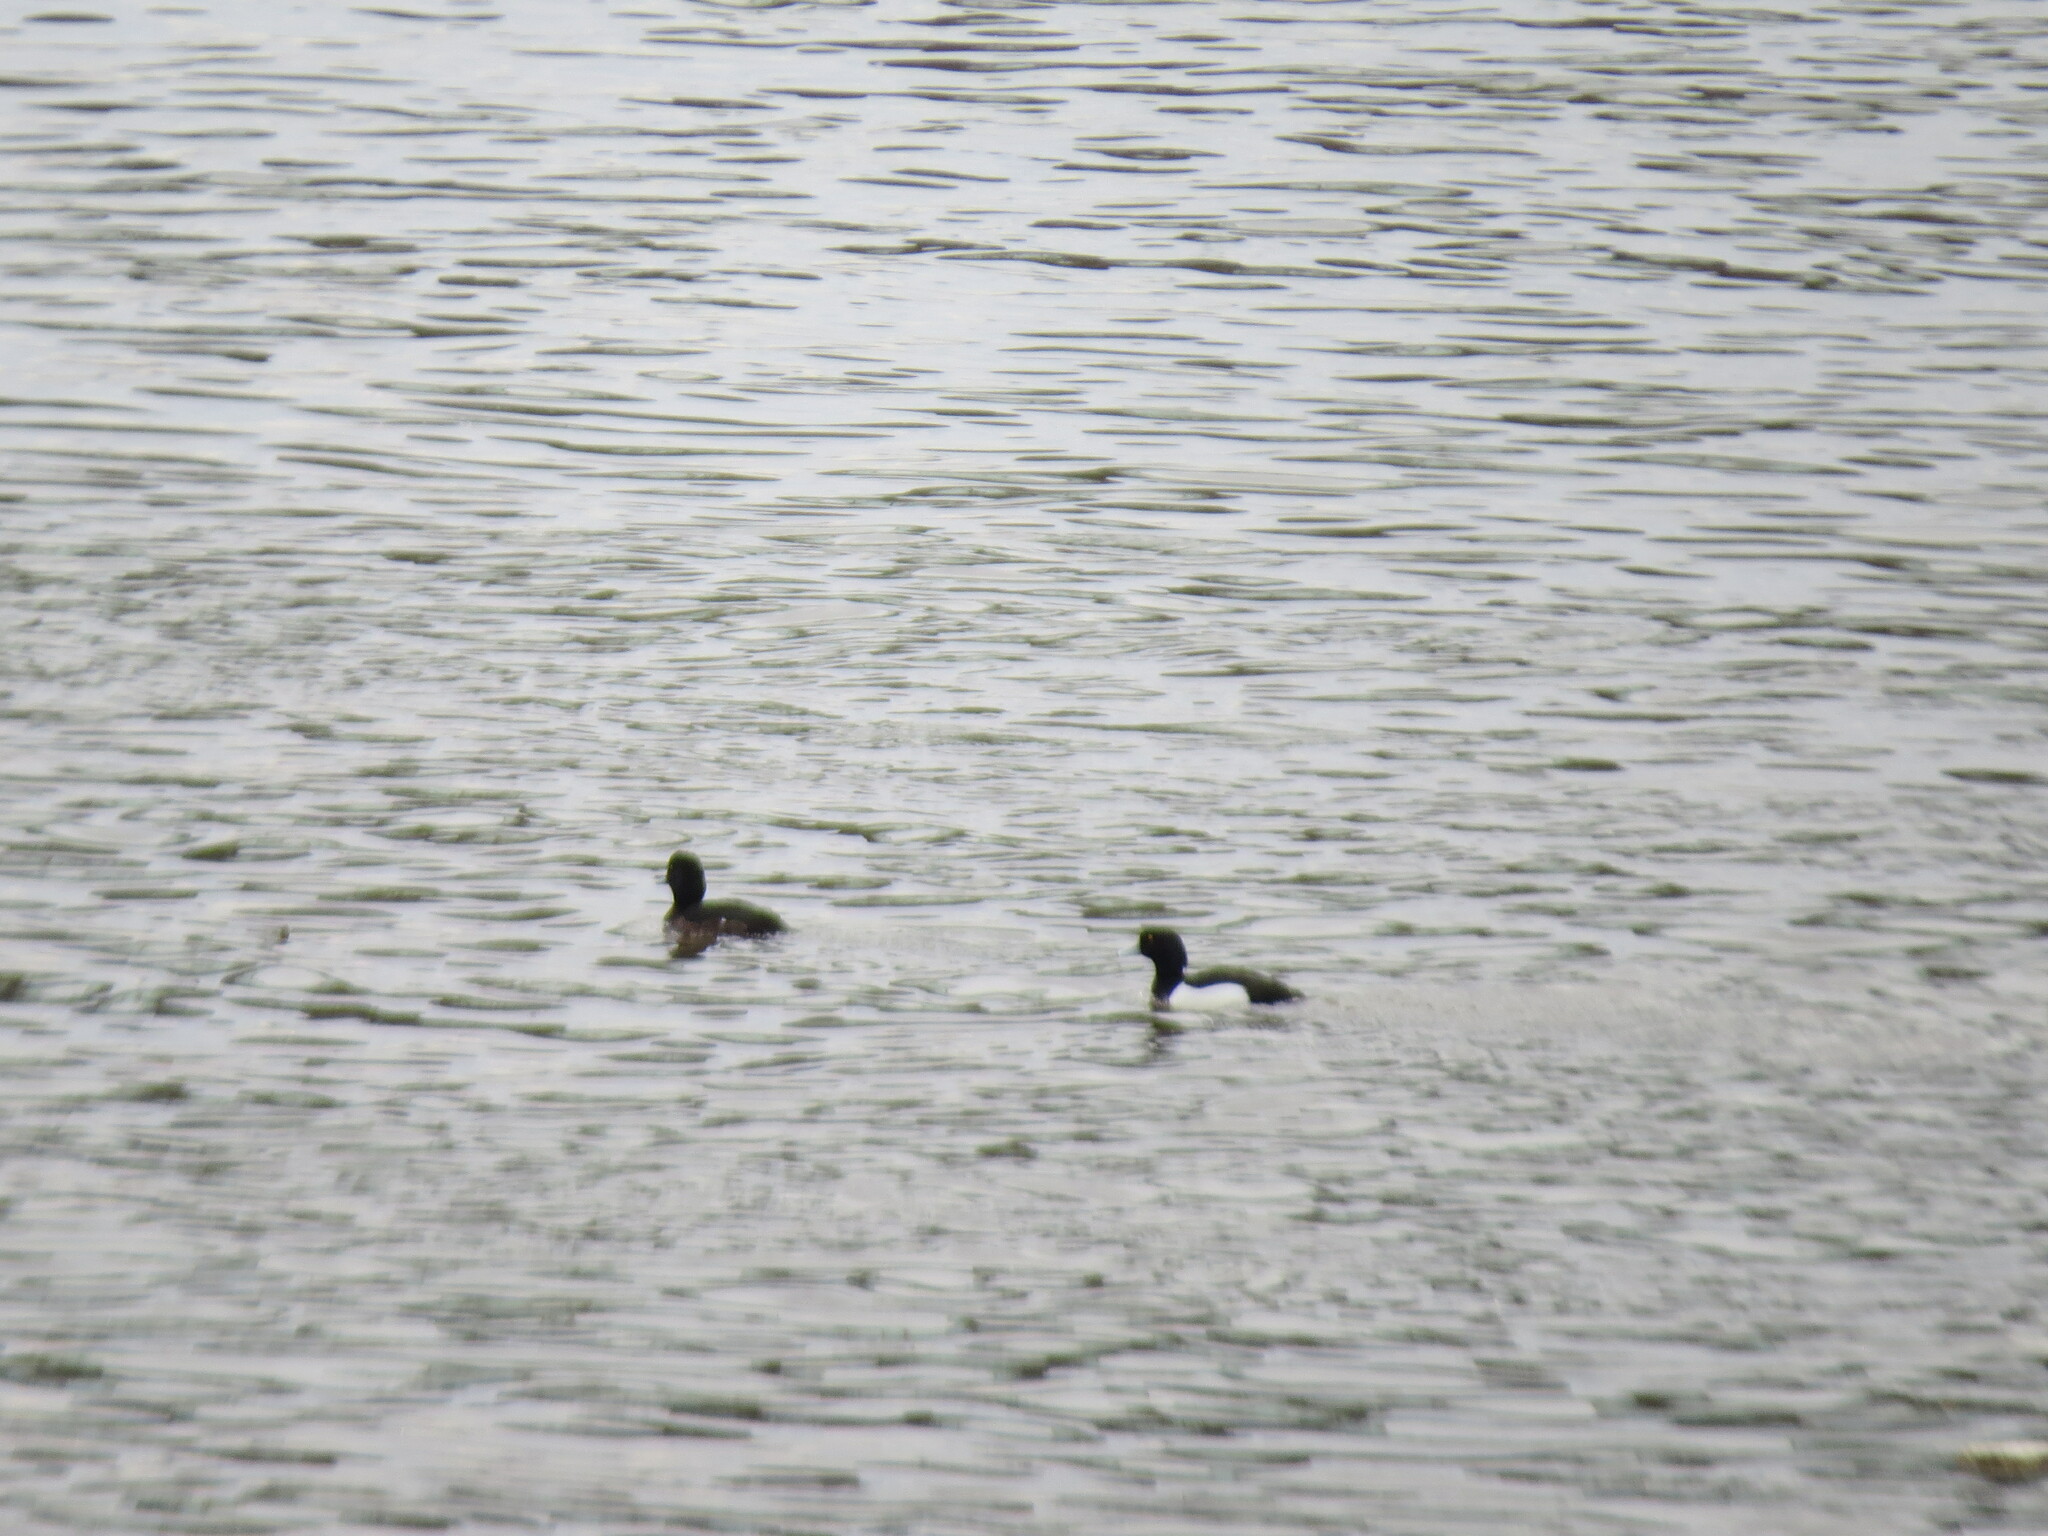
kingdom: Animalia
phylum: Chordata
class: Aves
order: Anseriformes
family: Anatidae
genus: Aythya
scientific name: Aythya fuligula
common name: Tufted duck
